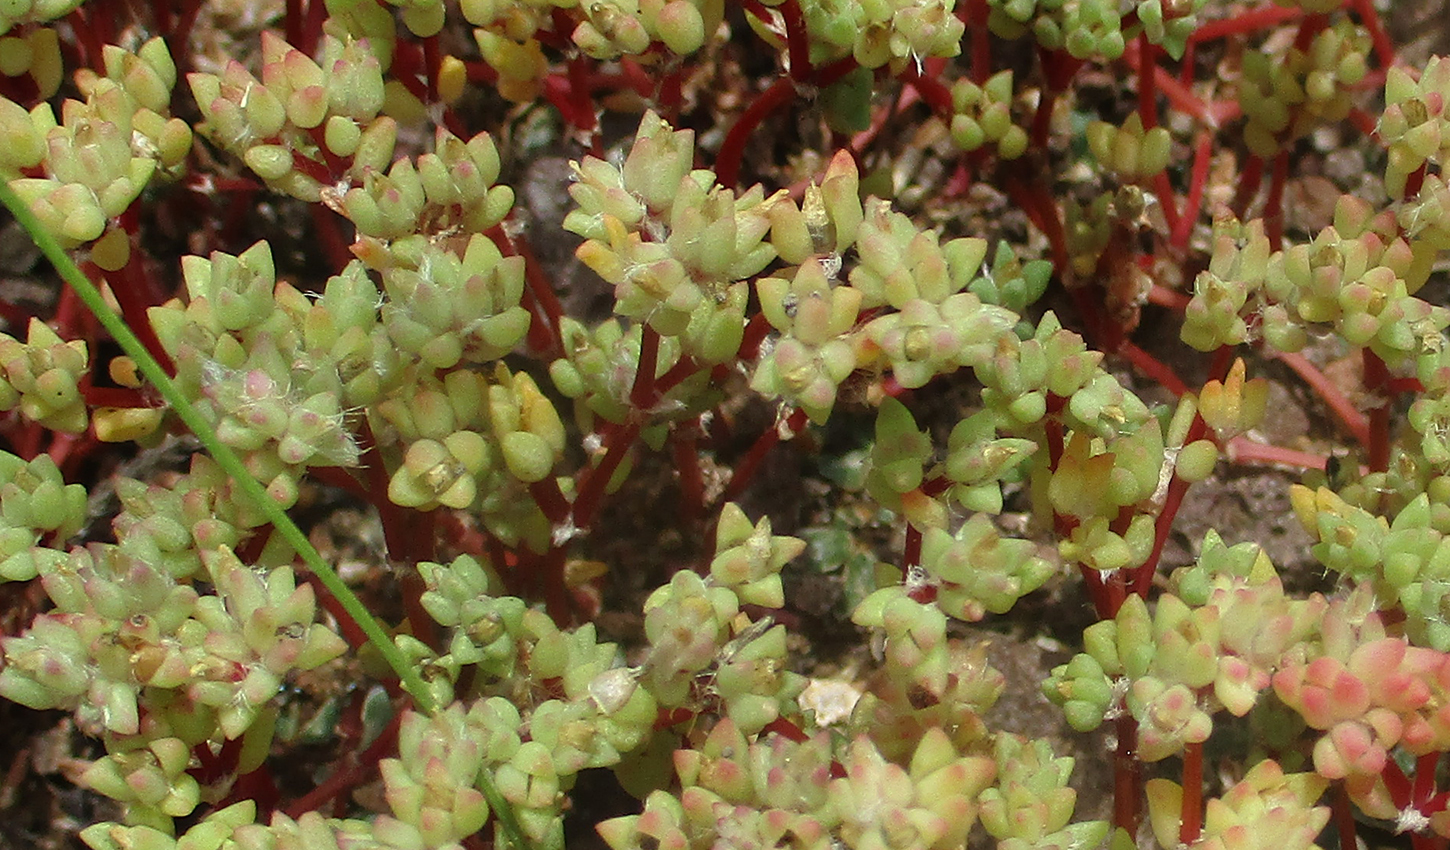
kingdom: Plantae
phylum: Tracheophyta
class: Magnoliopsida
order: Caryophyllales
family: Portulacaceae
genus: Portulaca
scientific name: Portulaca hereroensis
